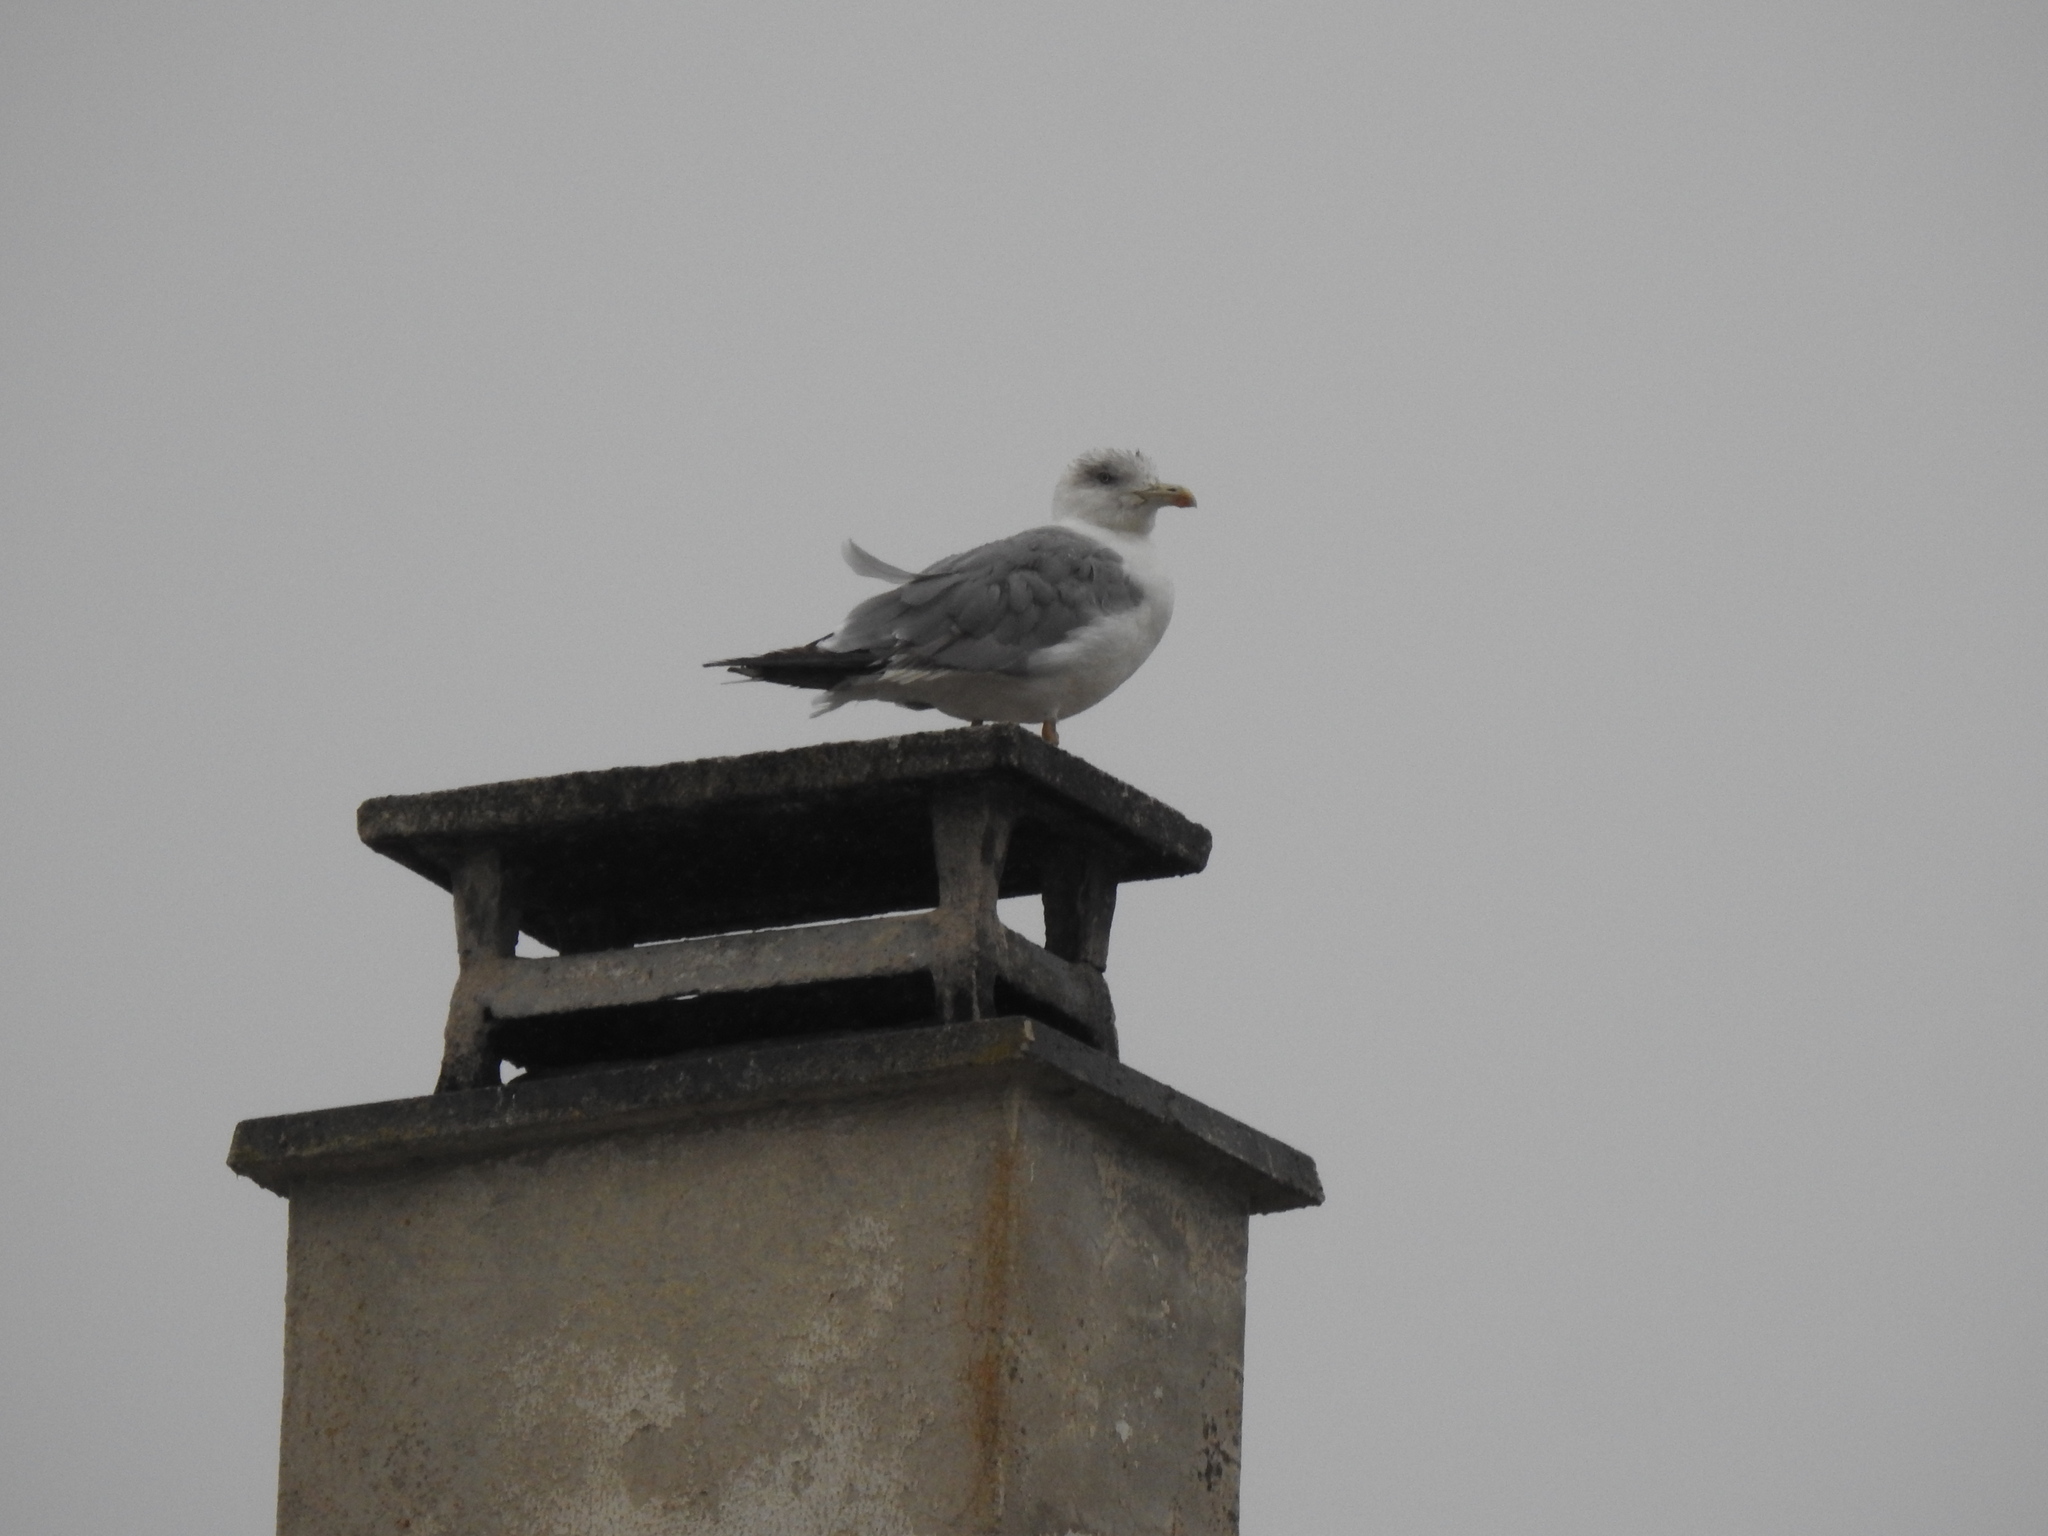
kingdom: Animalia
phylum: Chordata
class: Aves
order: Charadriiformes
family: Laridae
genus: Larus
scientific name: Larus michahellis
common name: Yellow-legged gull
